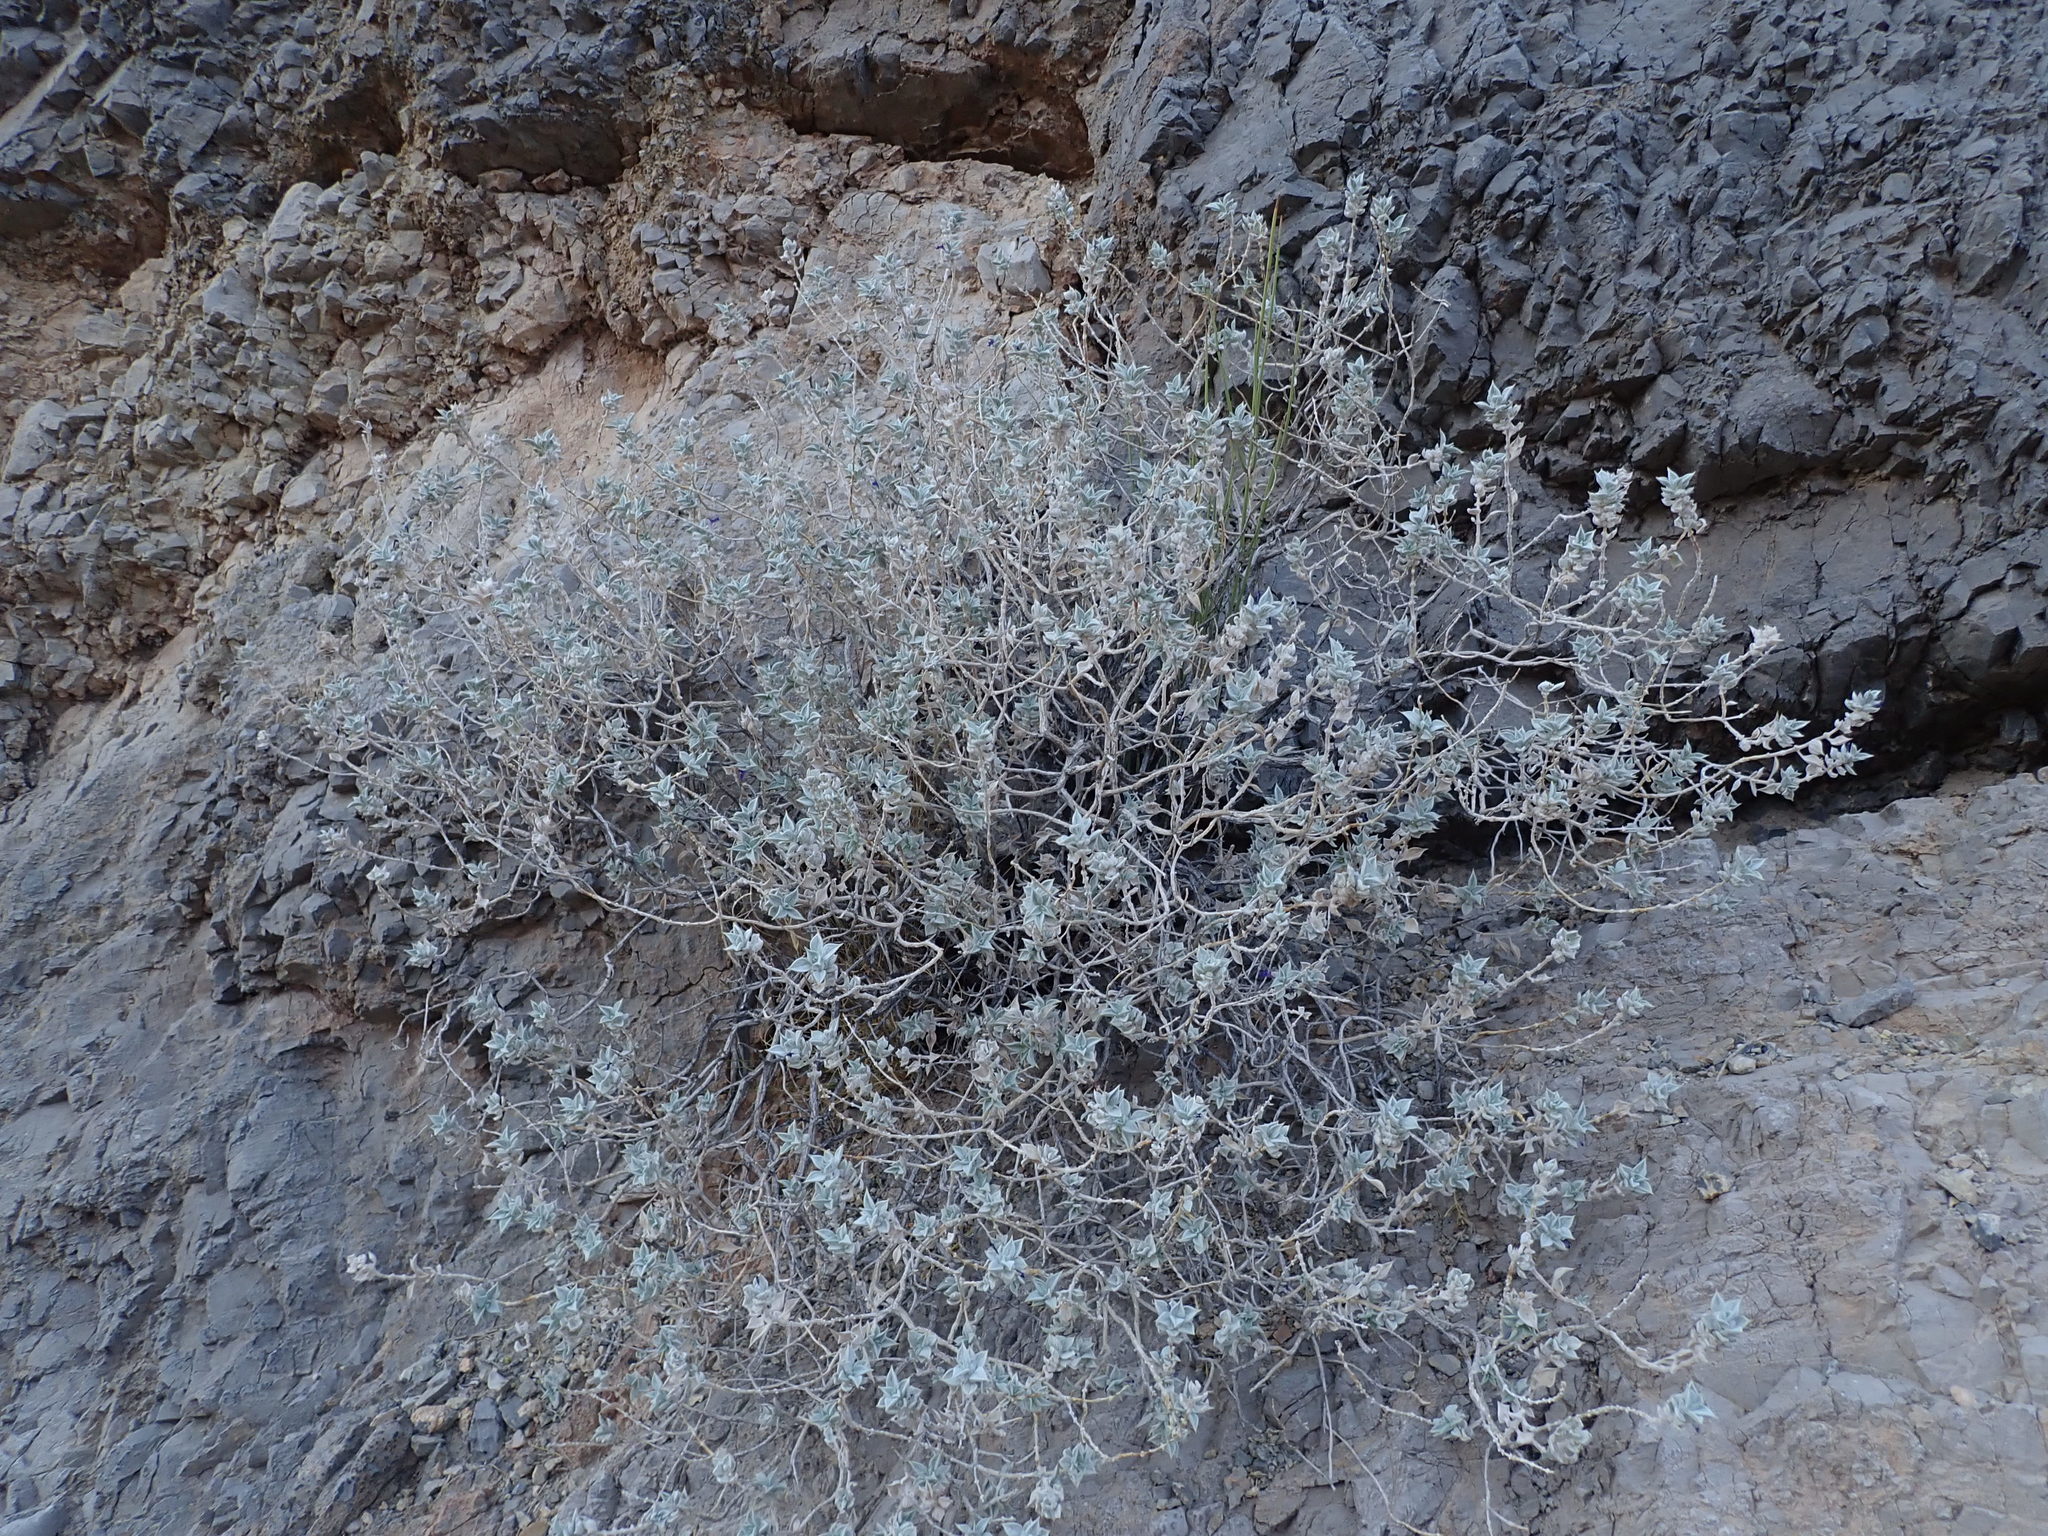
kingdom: Plantae
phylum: Tracheophyta
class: Magnoliopsida
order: Lamiales
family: Lamiaceae
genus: Salvia
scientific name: Salvia funerea
